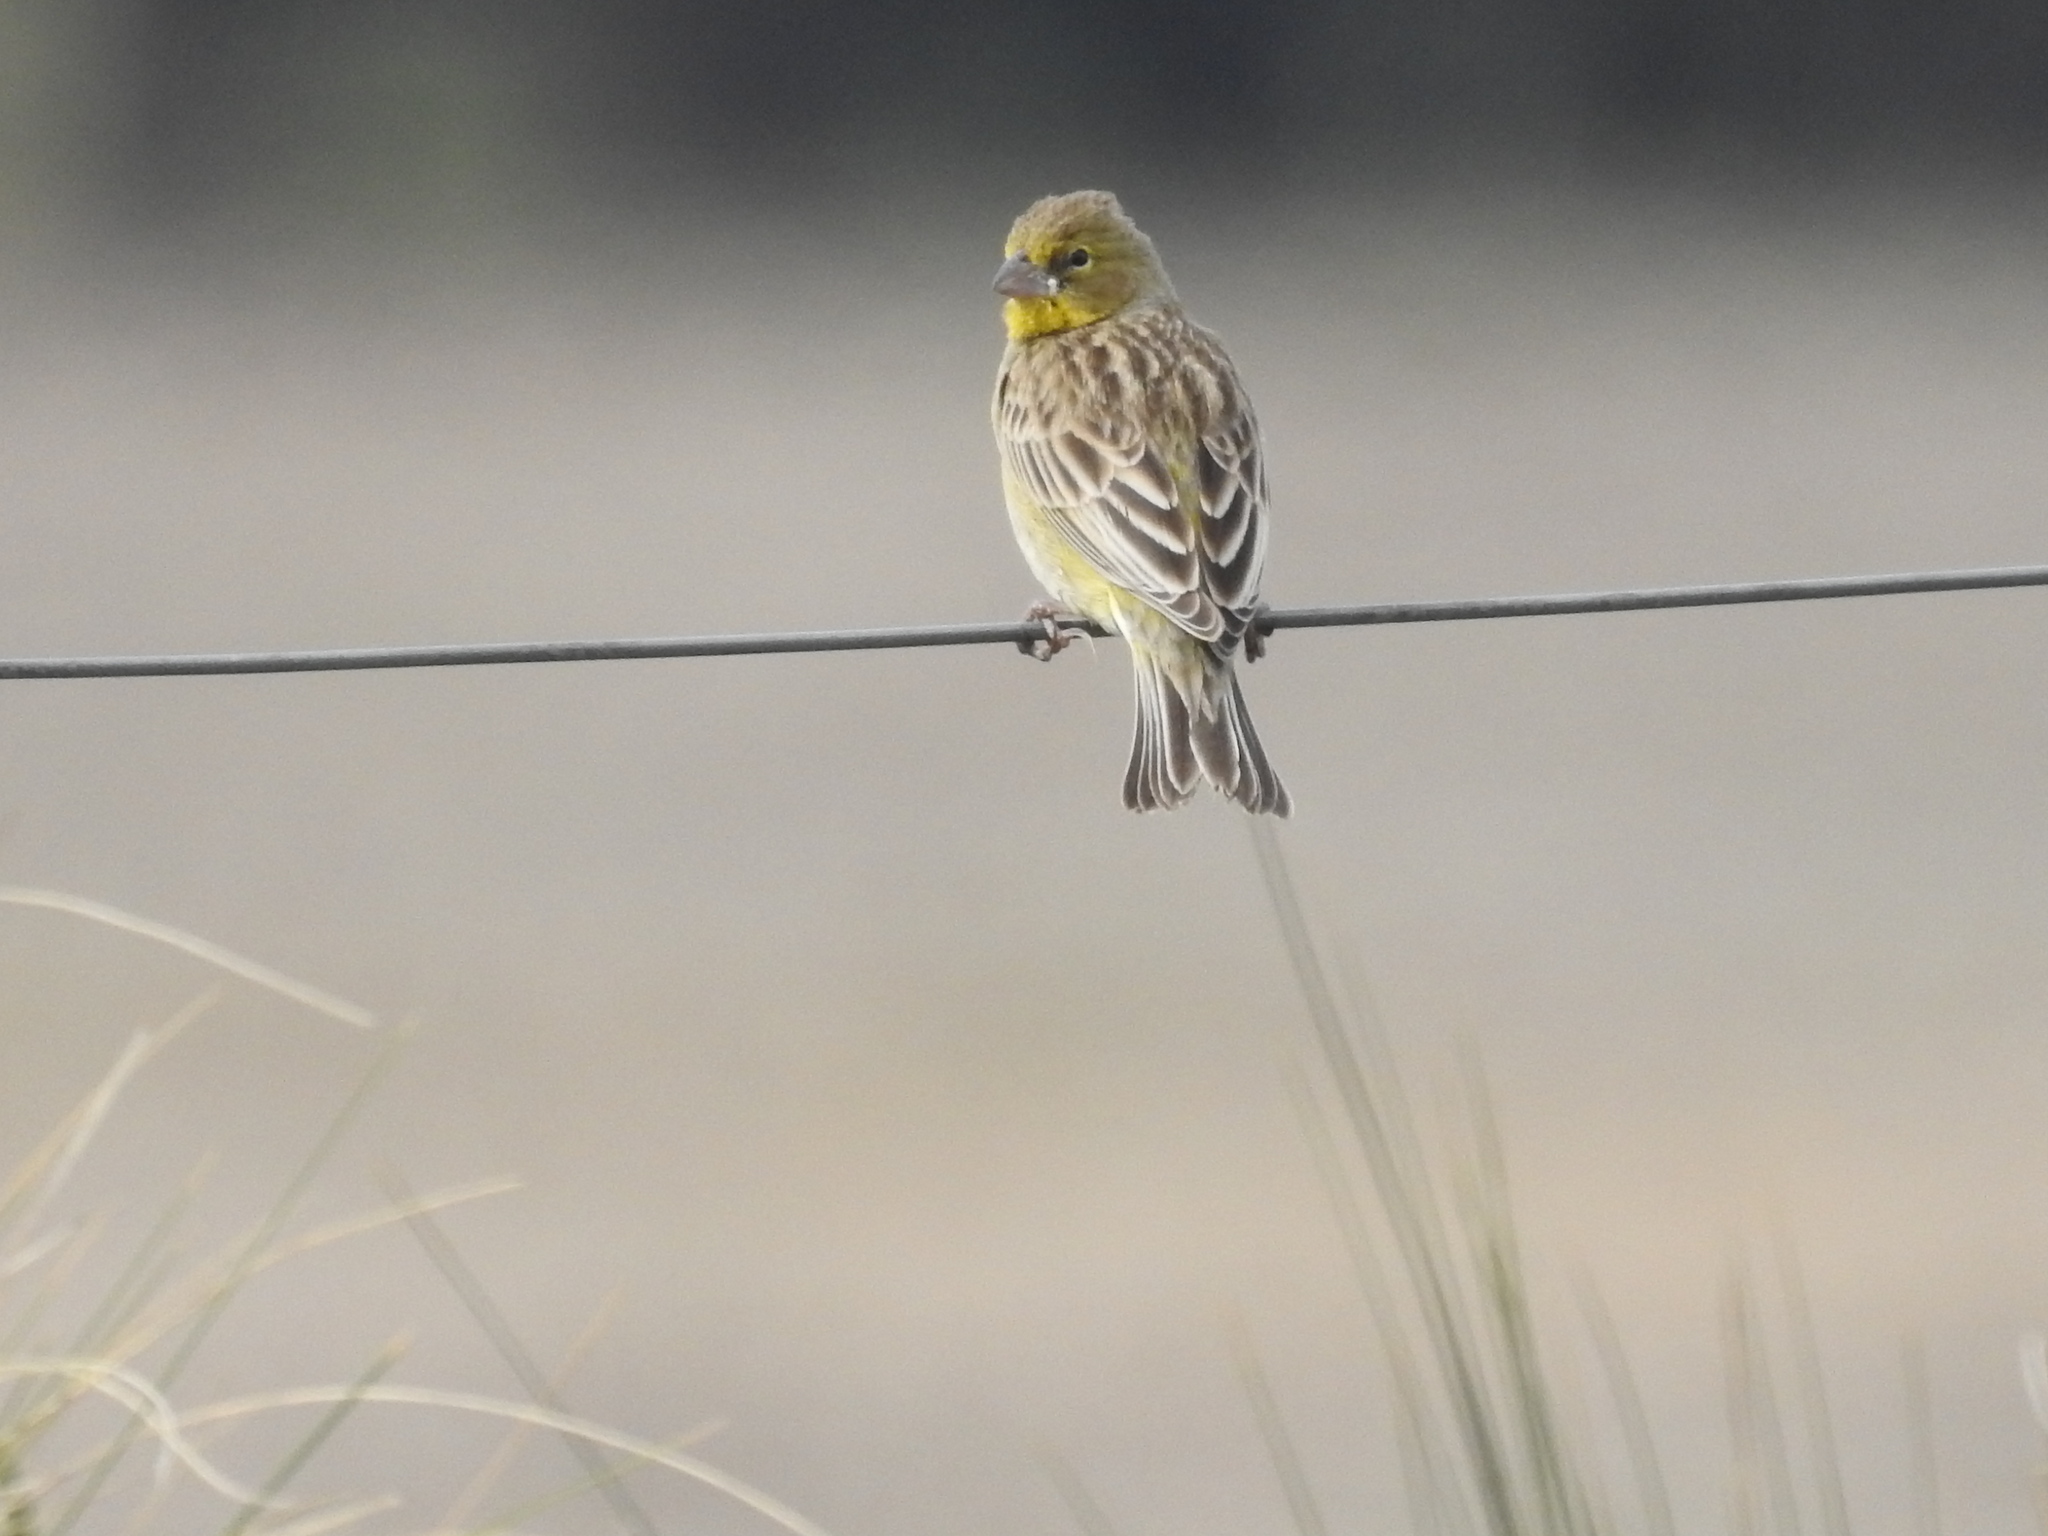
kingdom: Animalia
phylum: Chordata
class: Aves
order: Passeriformes
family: Thraupidae
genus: Sicalis
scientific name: Sicalis luteola
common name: Grassland yellow-finch
